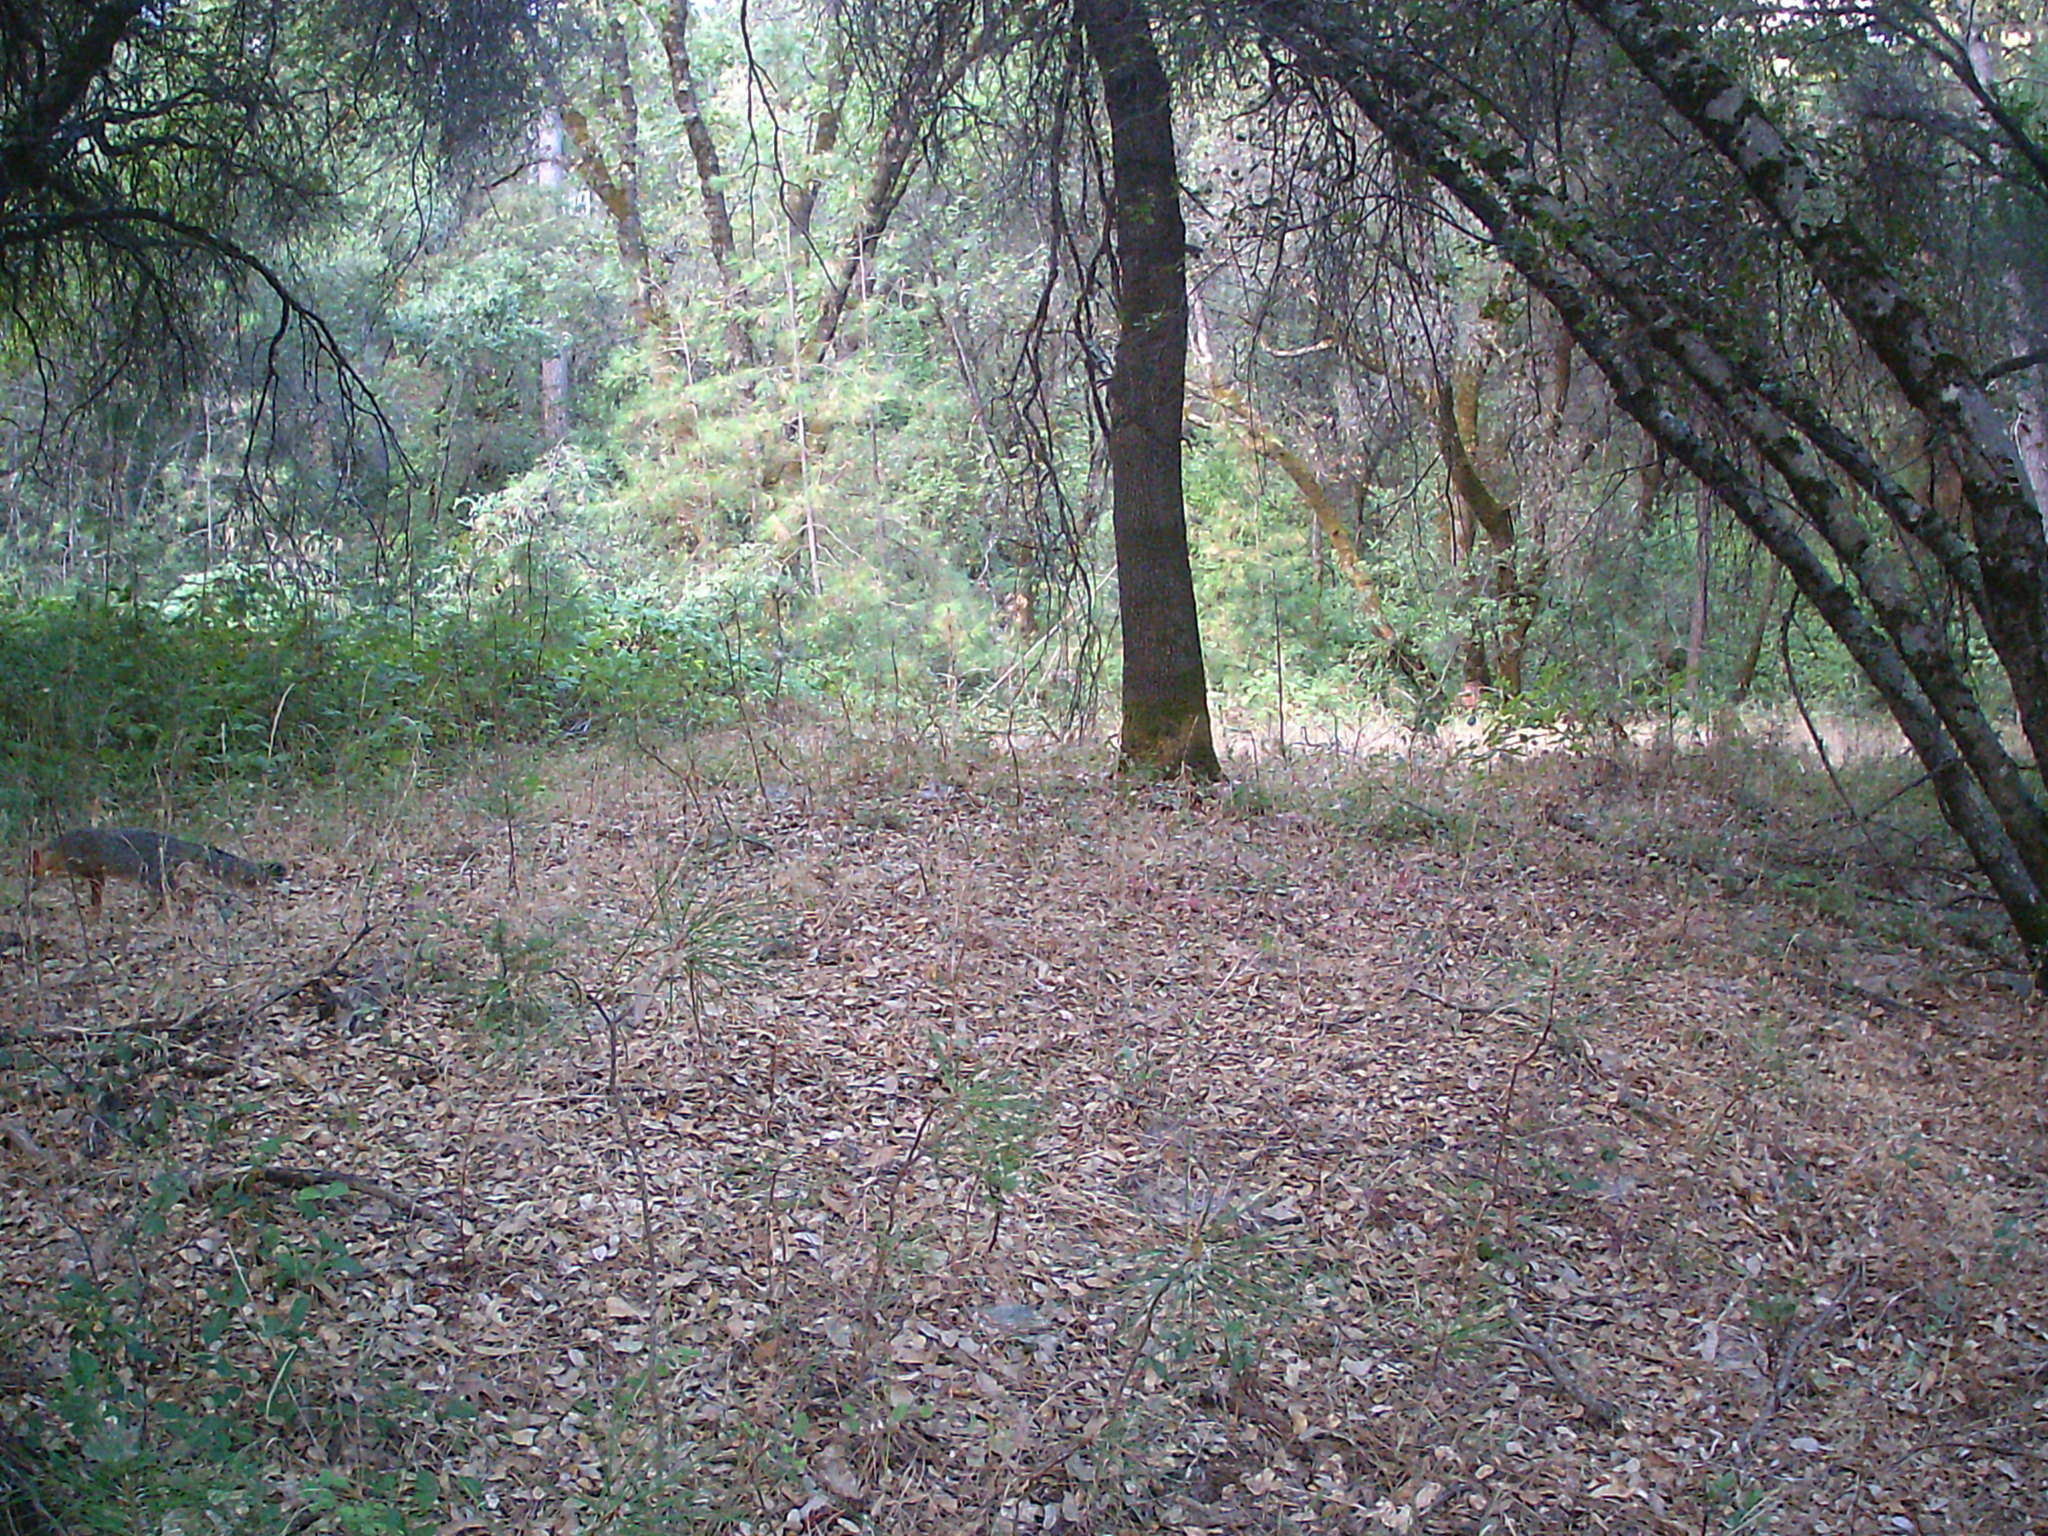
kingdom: Animalia
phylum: Chordata
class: Mammalia
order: Carnivora
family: Canidae
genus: Urocyon
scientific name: Urocyon cinereoargenteus
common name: Gray fox
